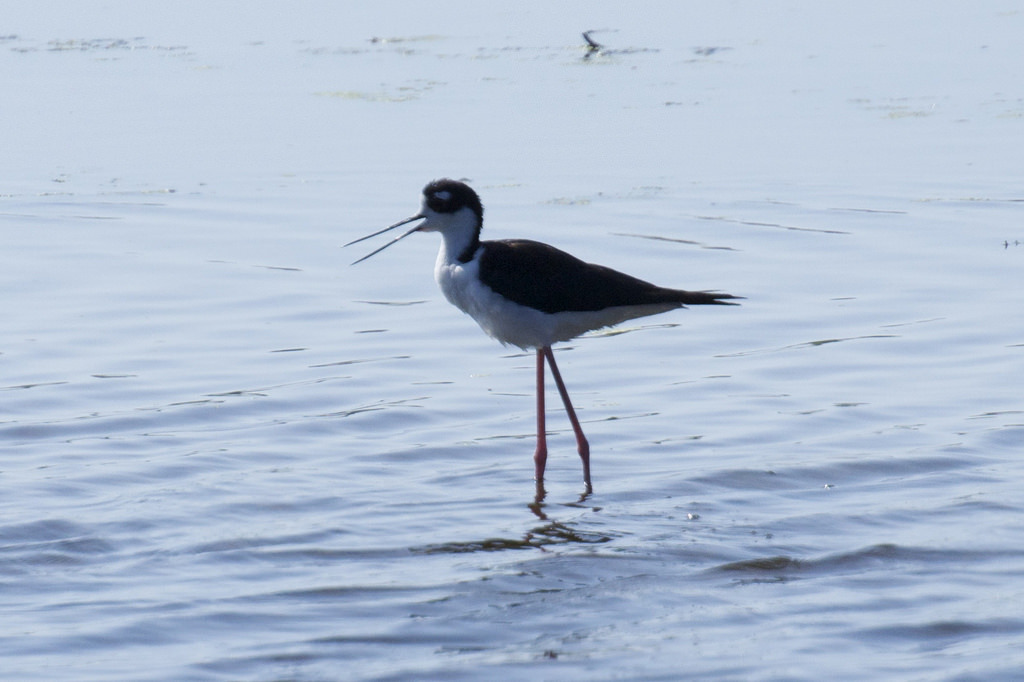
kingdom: Animalia
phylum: Chordata
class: Aves
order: Charadriiformes
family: Recurvirostridae
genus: Himantopus
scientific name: Himantopus mexicanus
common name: Black-necked stilt
